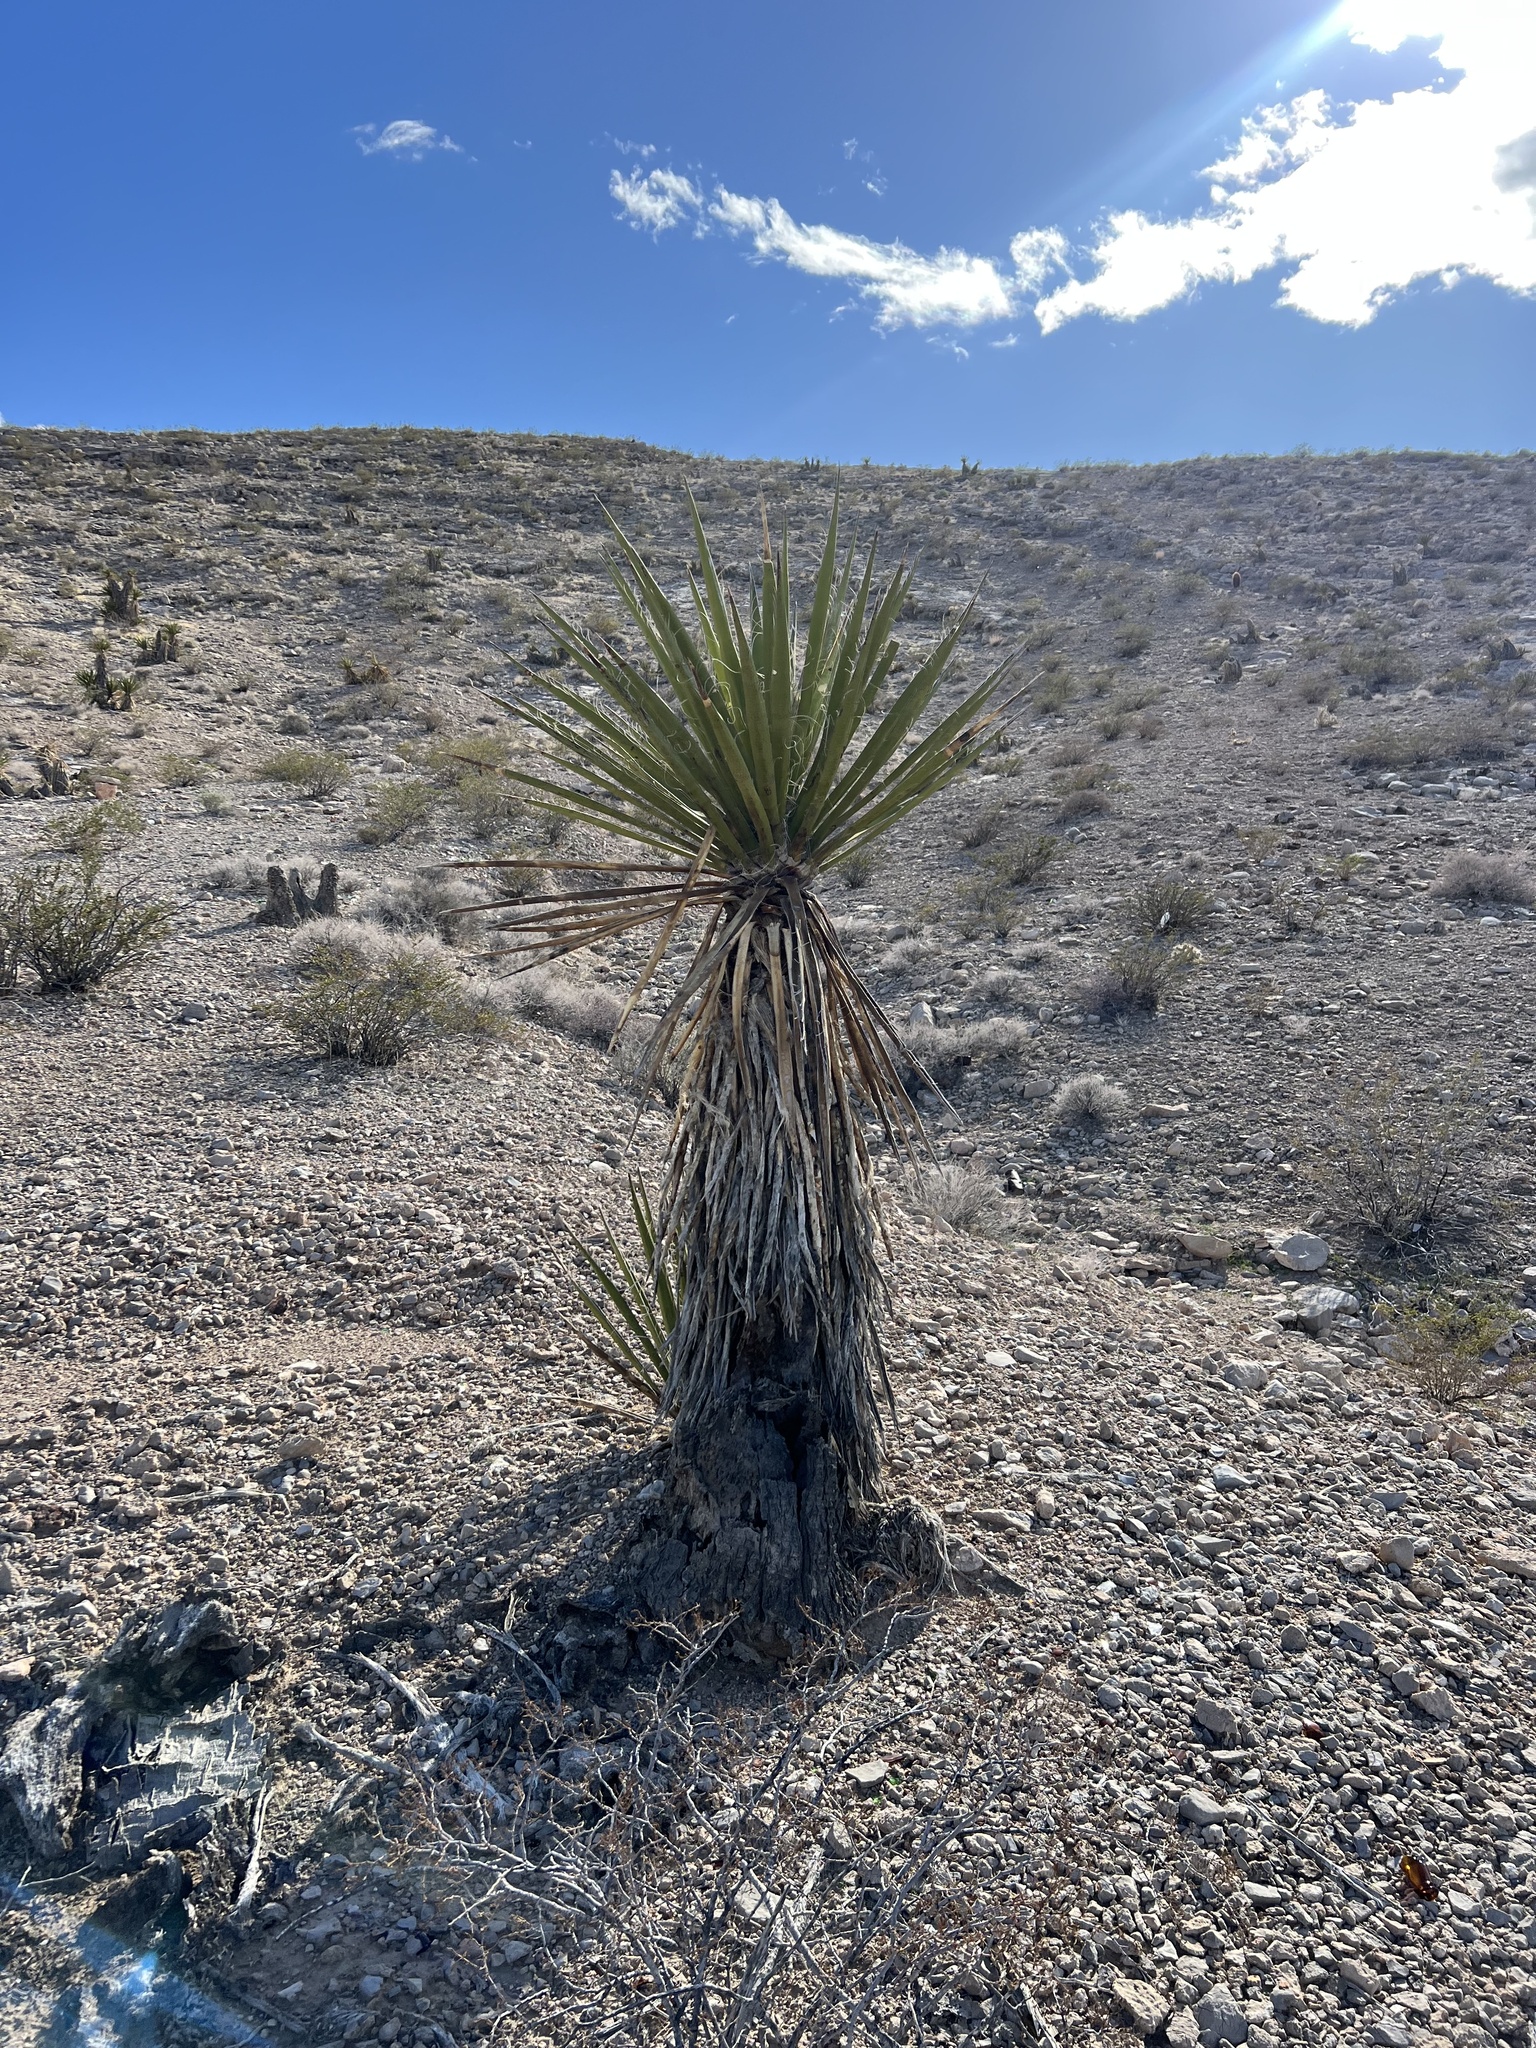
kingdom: Plantae
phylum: Tracheophyta
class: Liliopsida
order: Asparagales
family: Asparagaceae
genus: Yucca
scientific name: Yucca schidigera
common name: Mojave yucca
